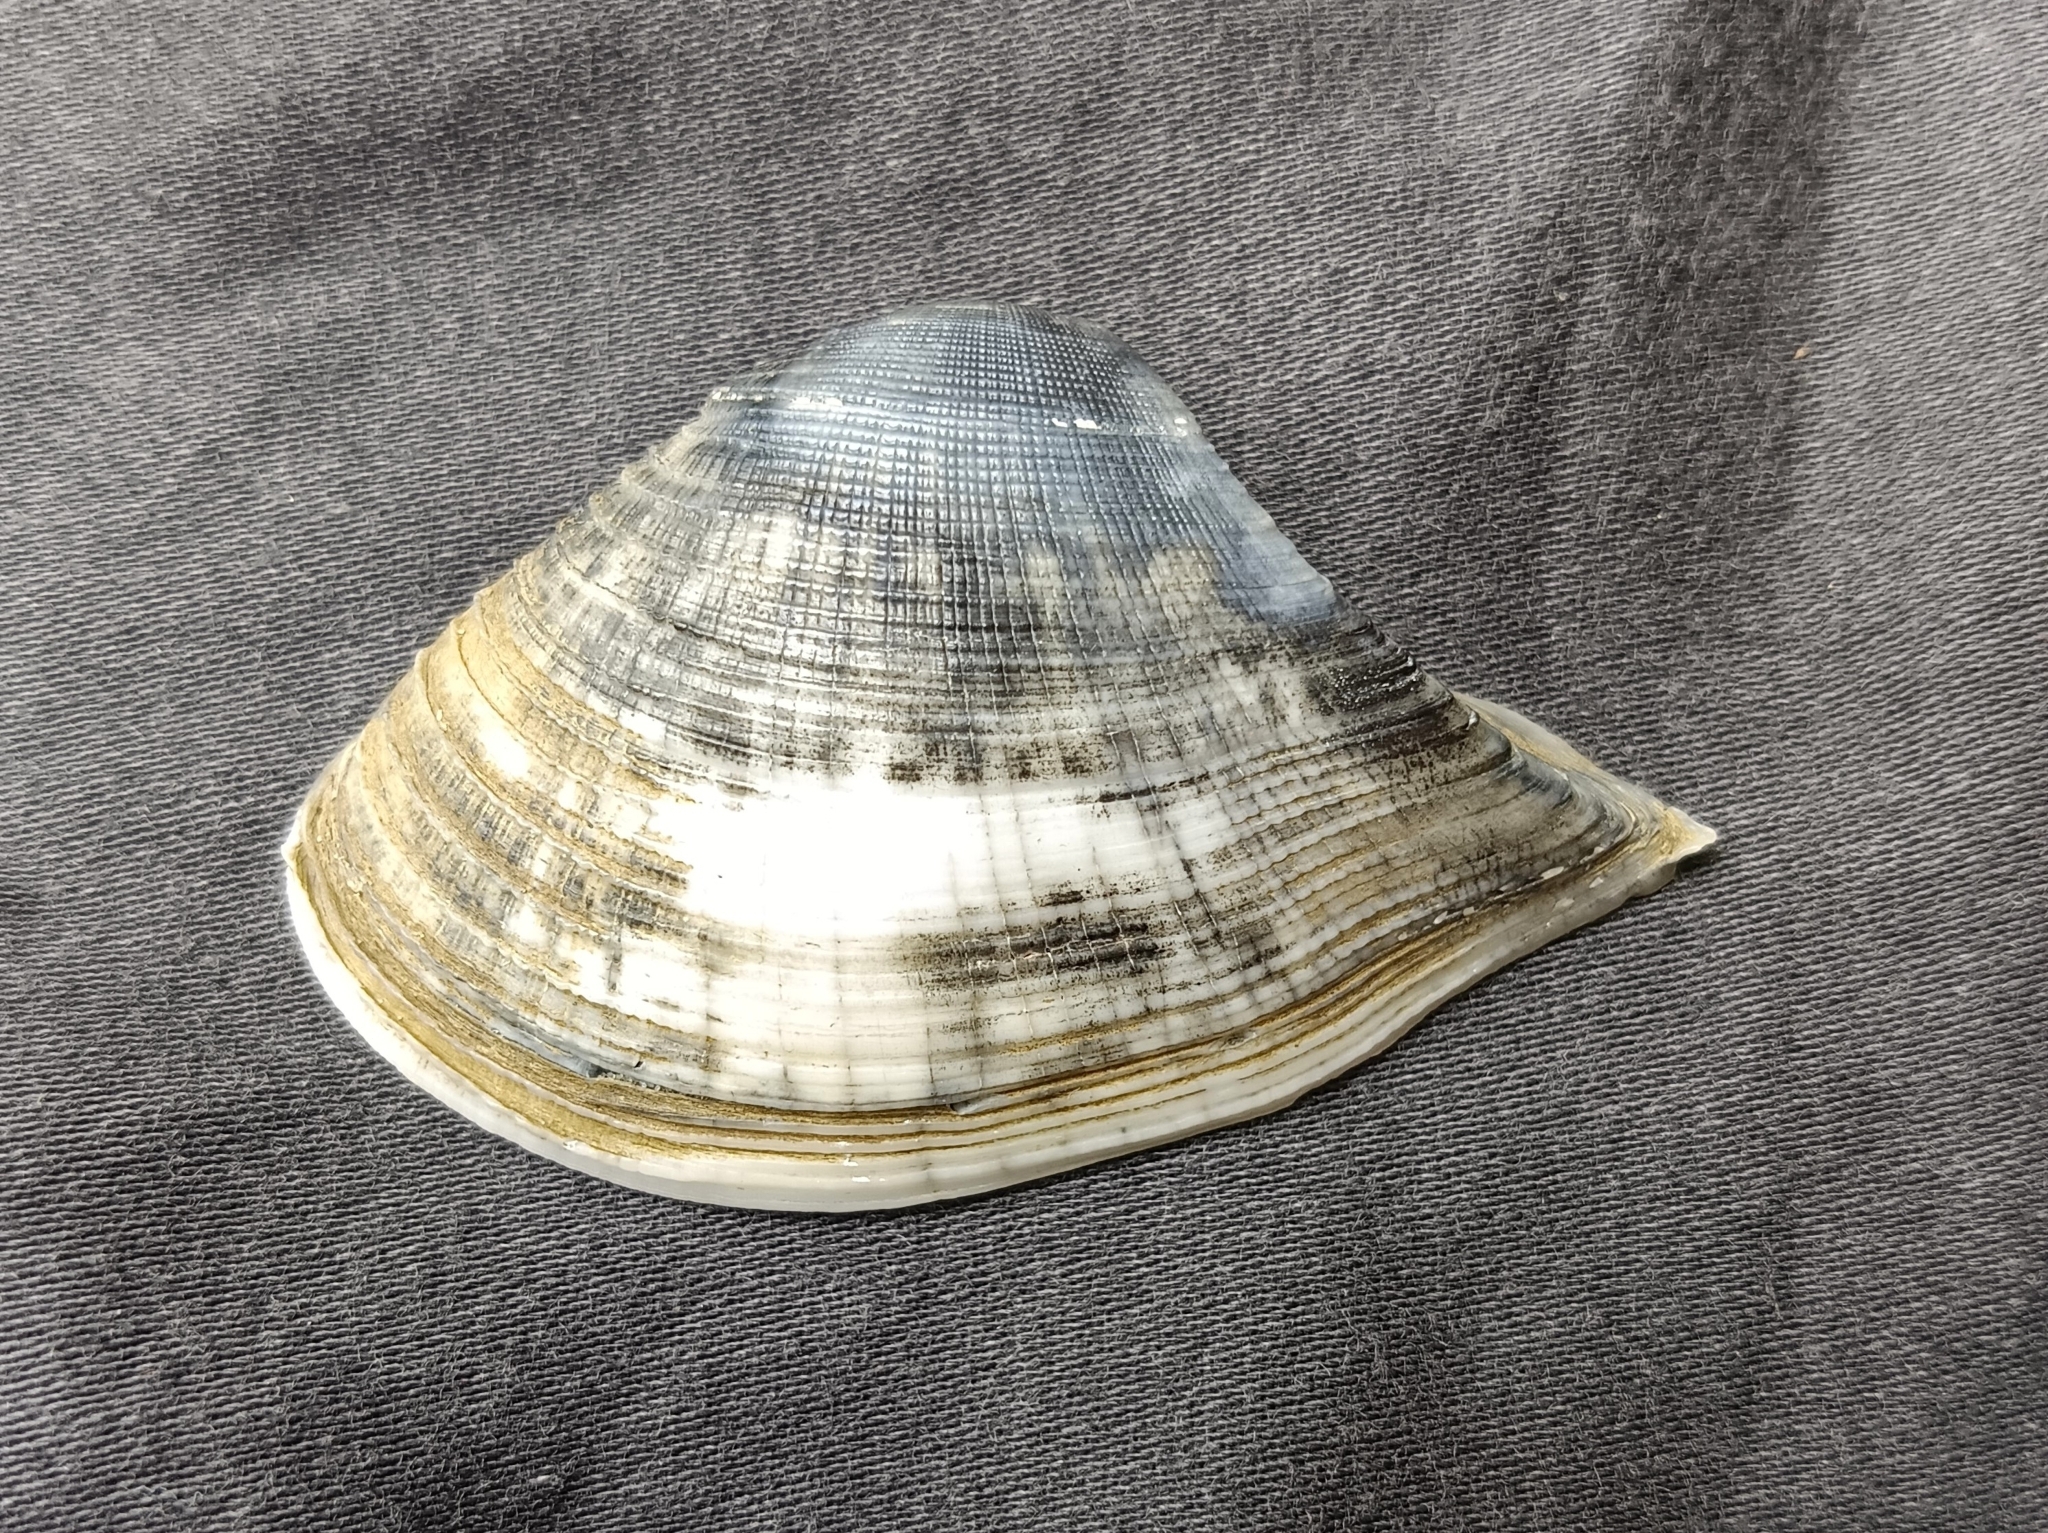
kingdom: Animalia
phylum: Mollusca
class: Bivalvia
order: Cardiida
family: Donacidae
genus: Hecuba
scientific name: Hecuba scortum
